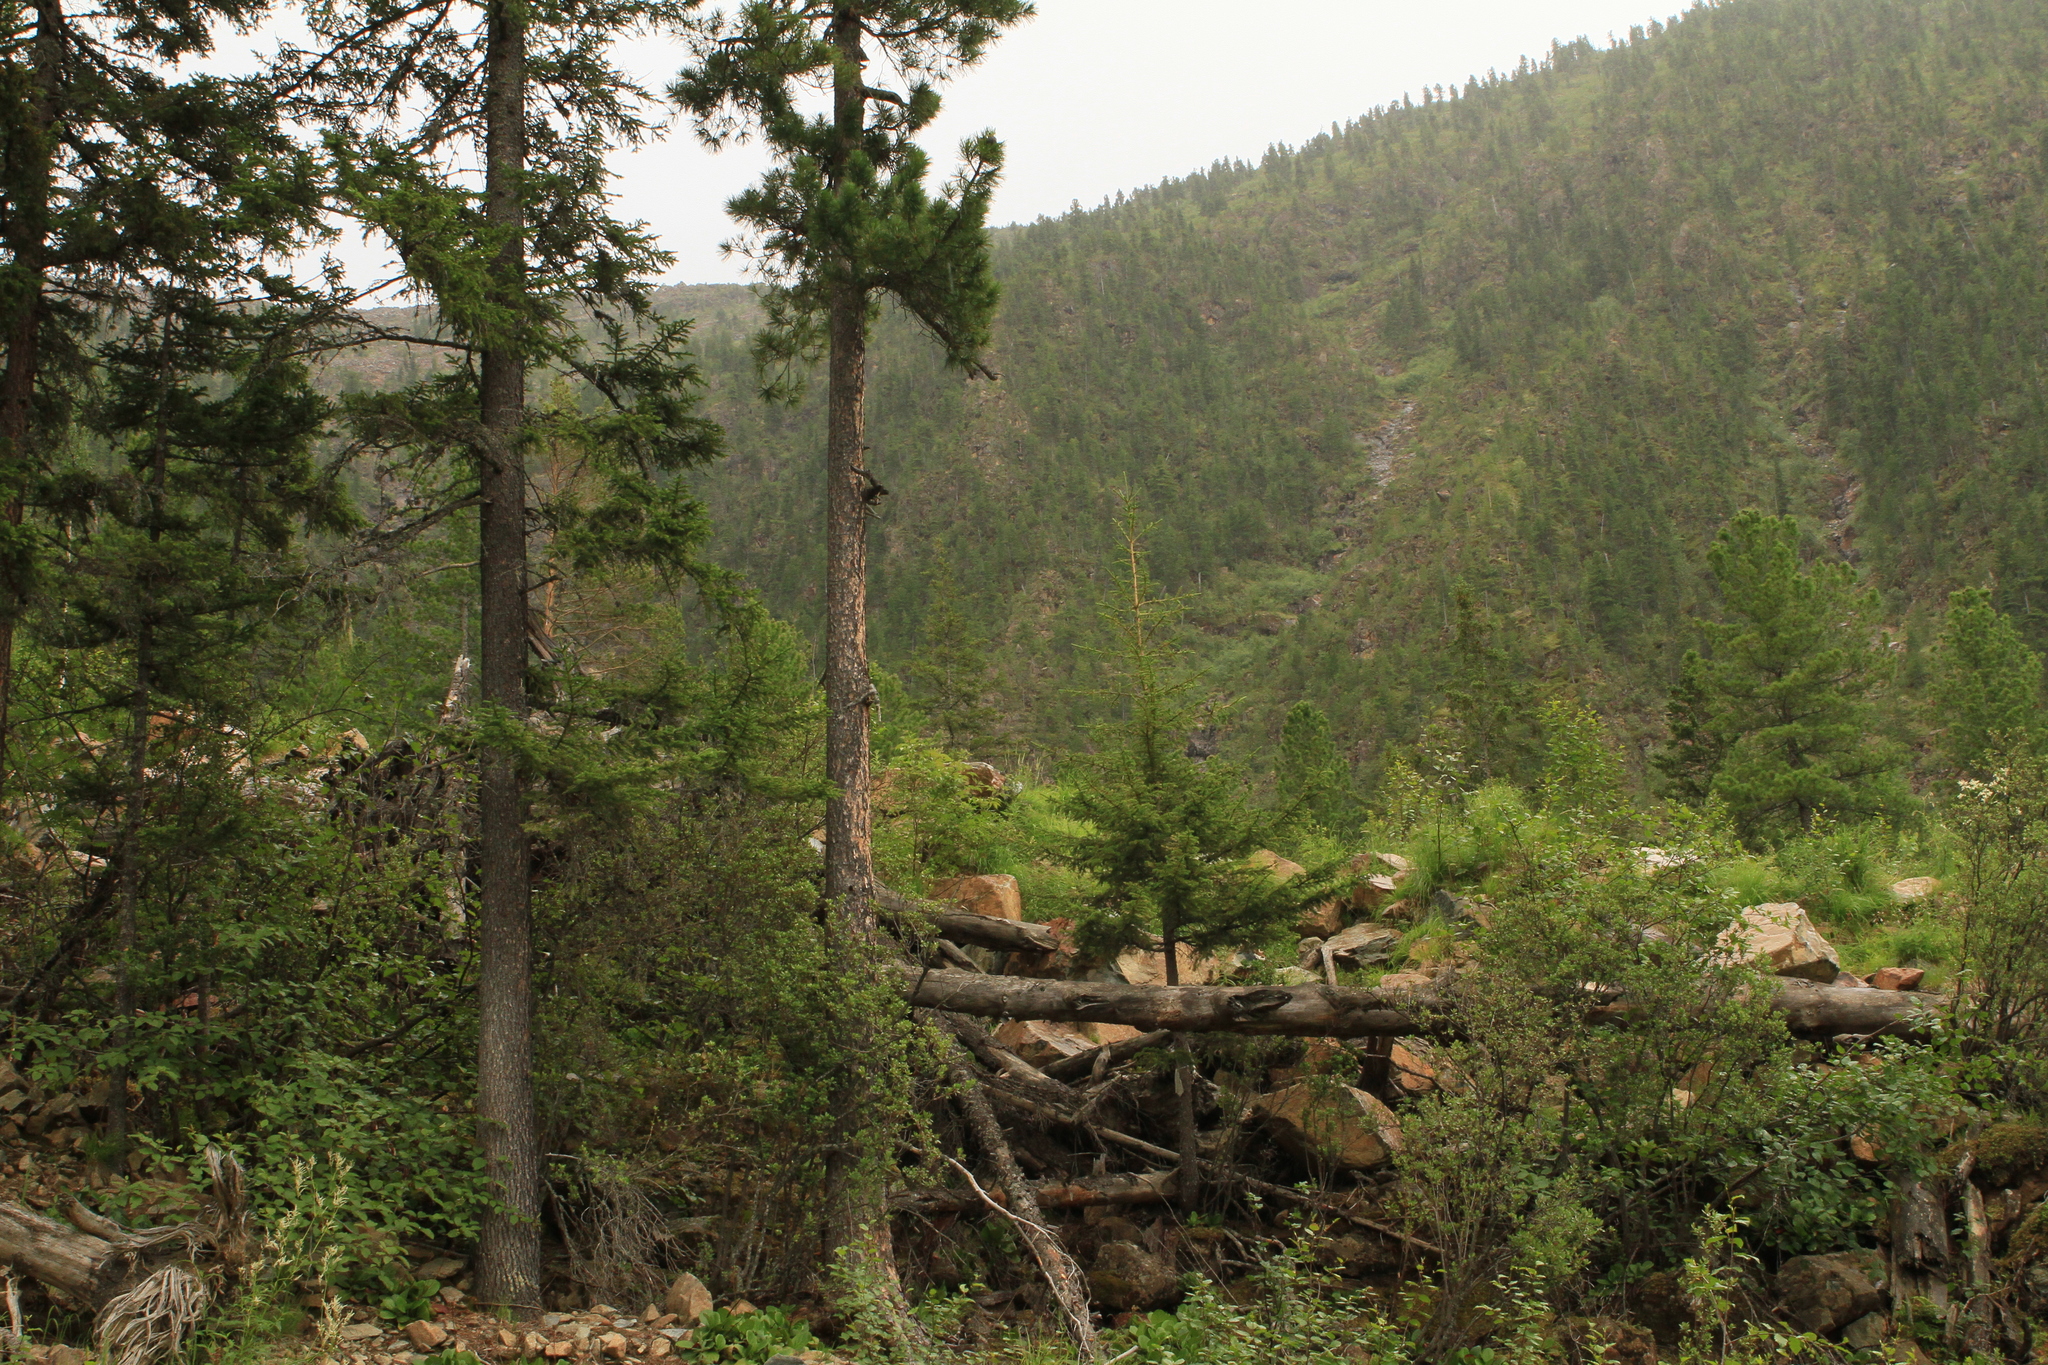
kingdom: Plantae
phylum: Tracheophyta
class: Pinopsida
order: Pinales
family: Pinaceae
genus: Picea
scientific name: Picea obovata
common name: Siberian spruce
